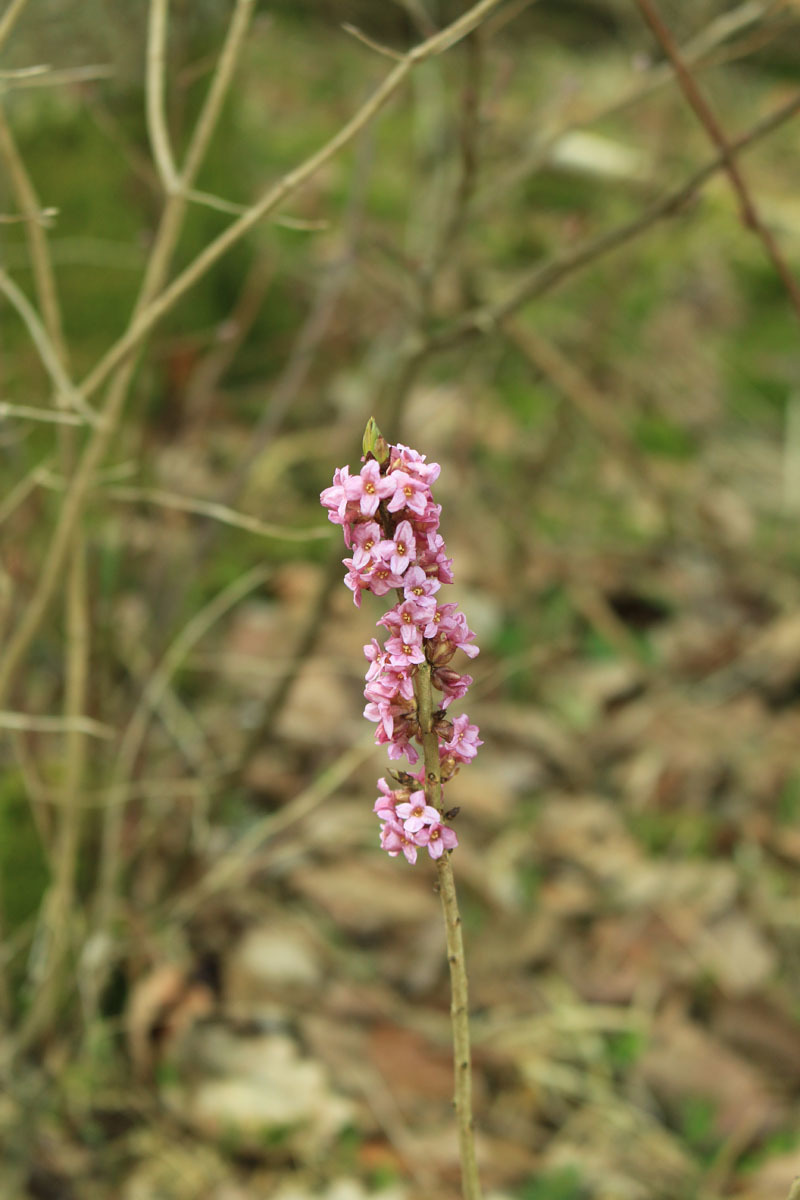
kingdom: Plantae
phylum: Tracheophyta
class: Magnoliopsida
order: Malvales
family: Thymelaeaceae
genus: Daphne
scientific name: Daphne mezereum
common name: Mezereon
